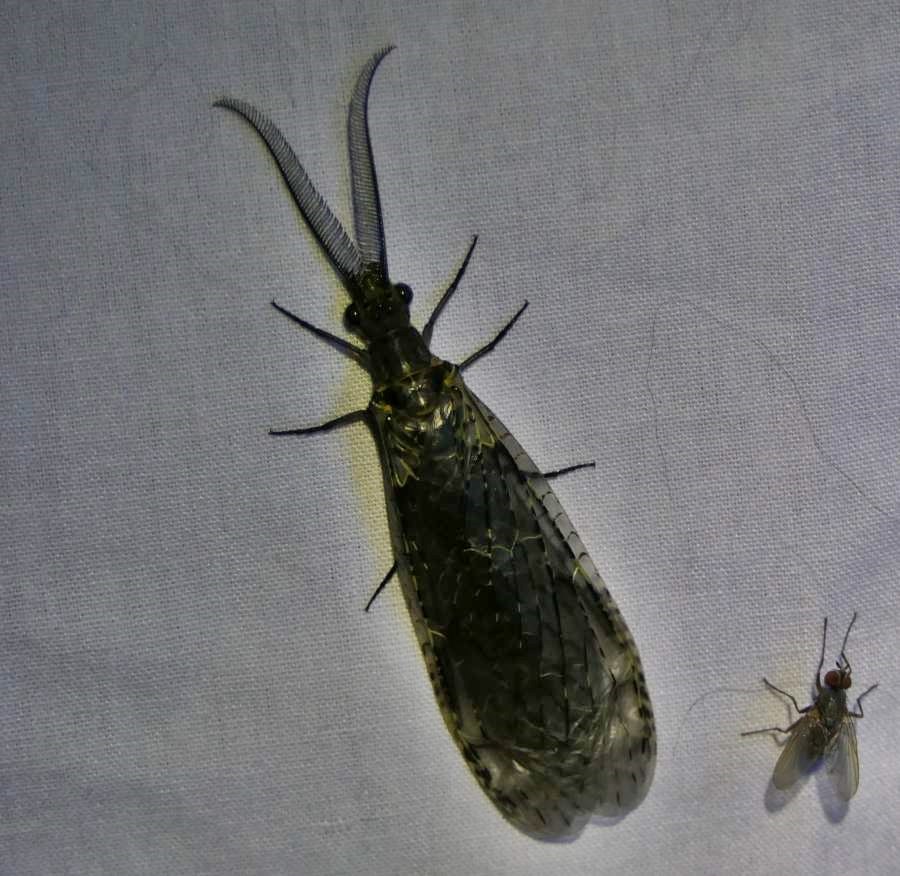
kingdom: Animalia
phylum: Arthropoda
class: Insecta
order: Megaloptera
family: Corydalidae
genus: Chauliodes
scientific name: Chauliodes rastricornis
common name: Spring fishfly
